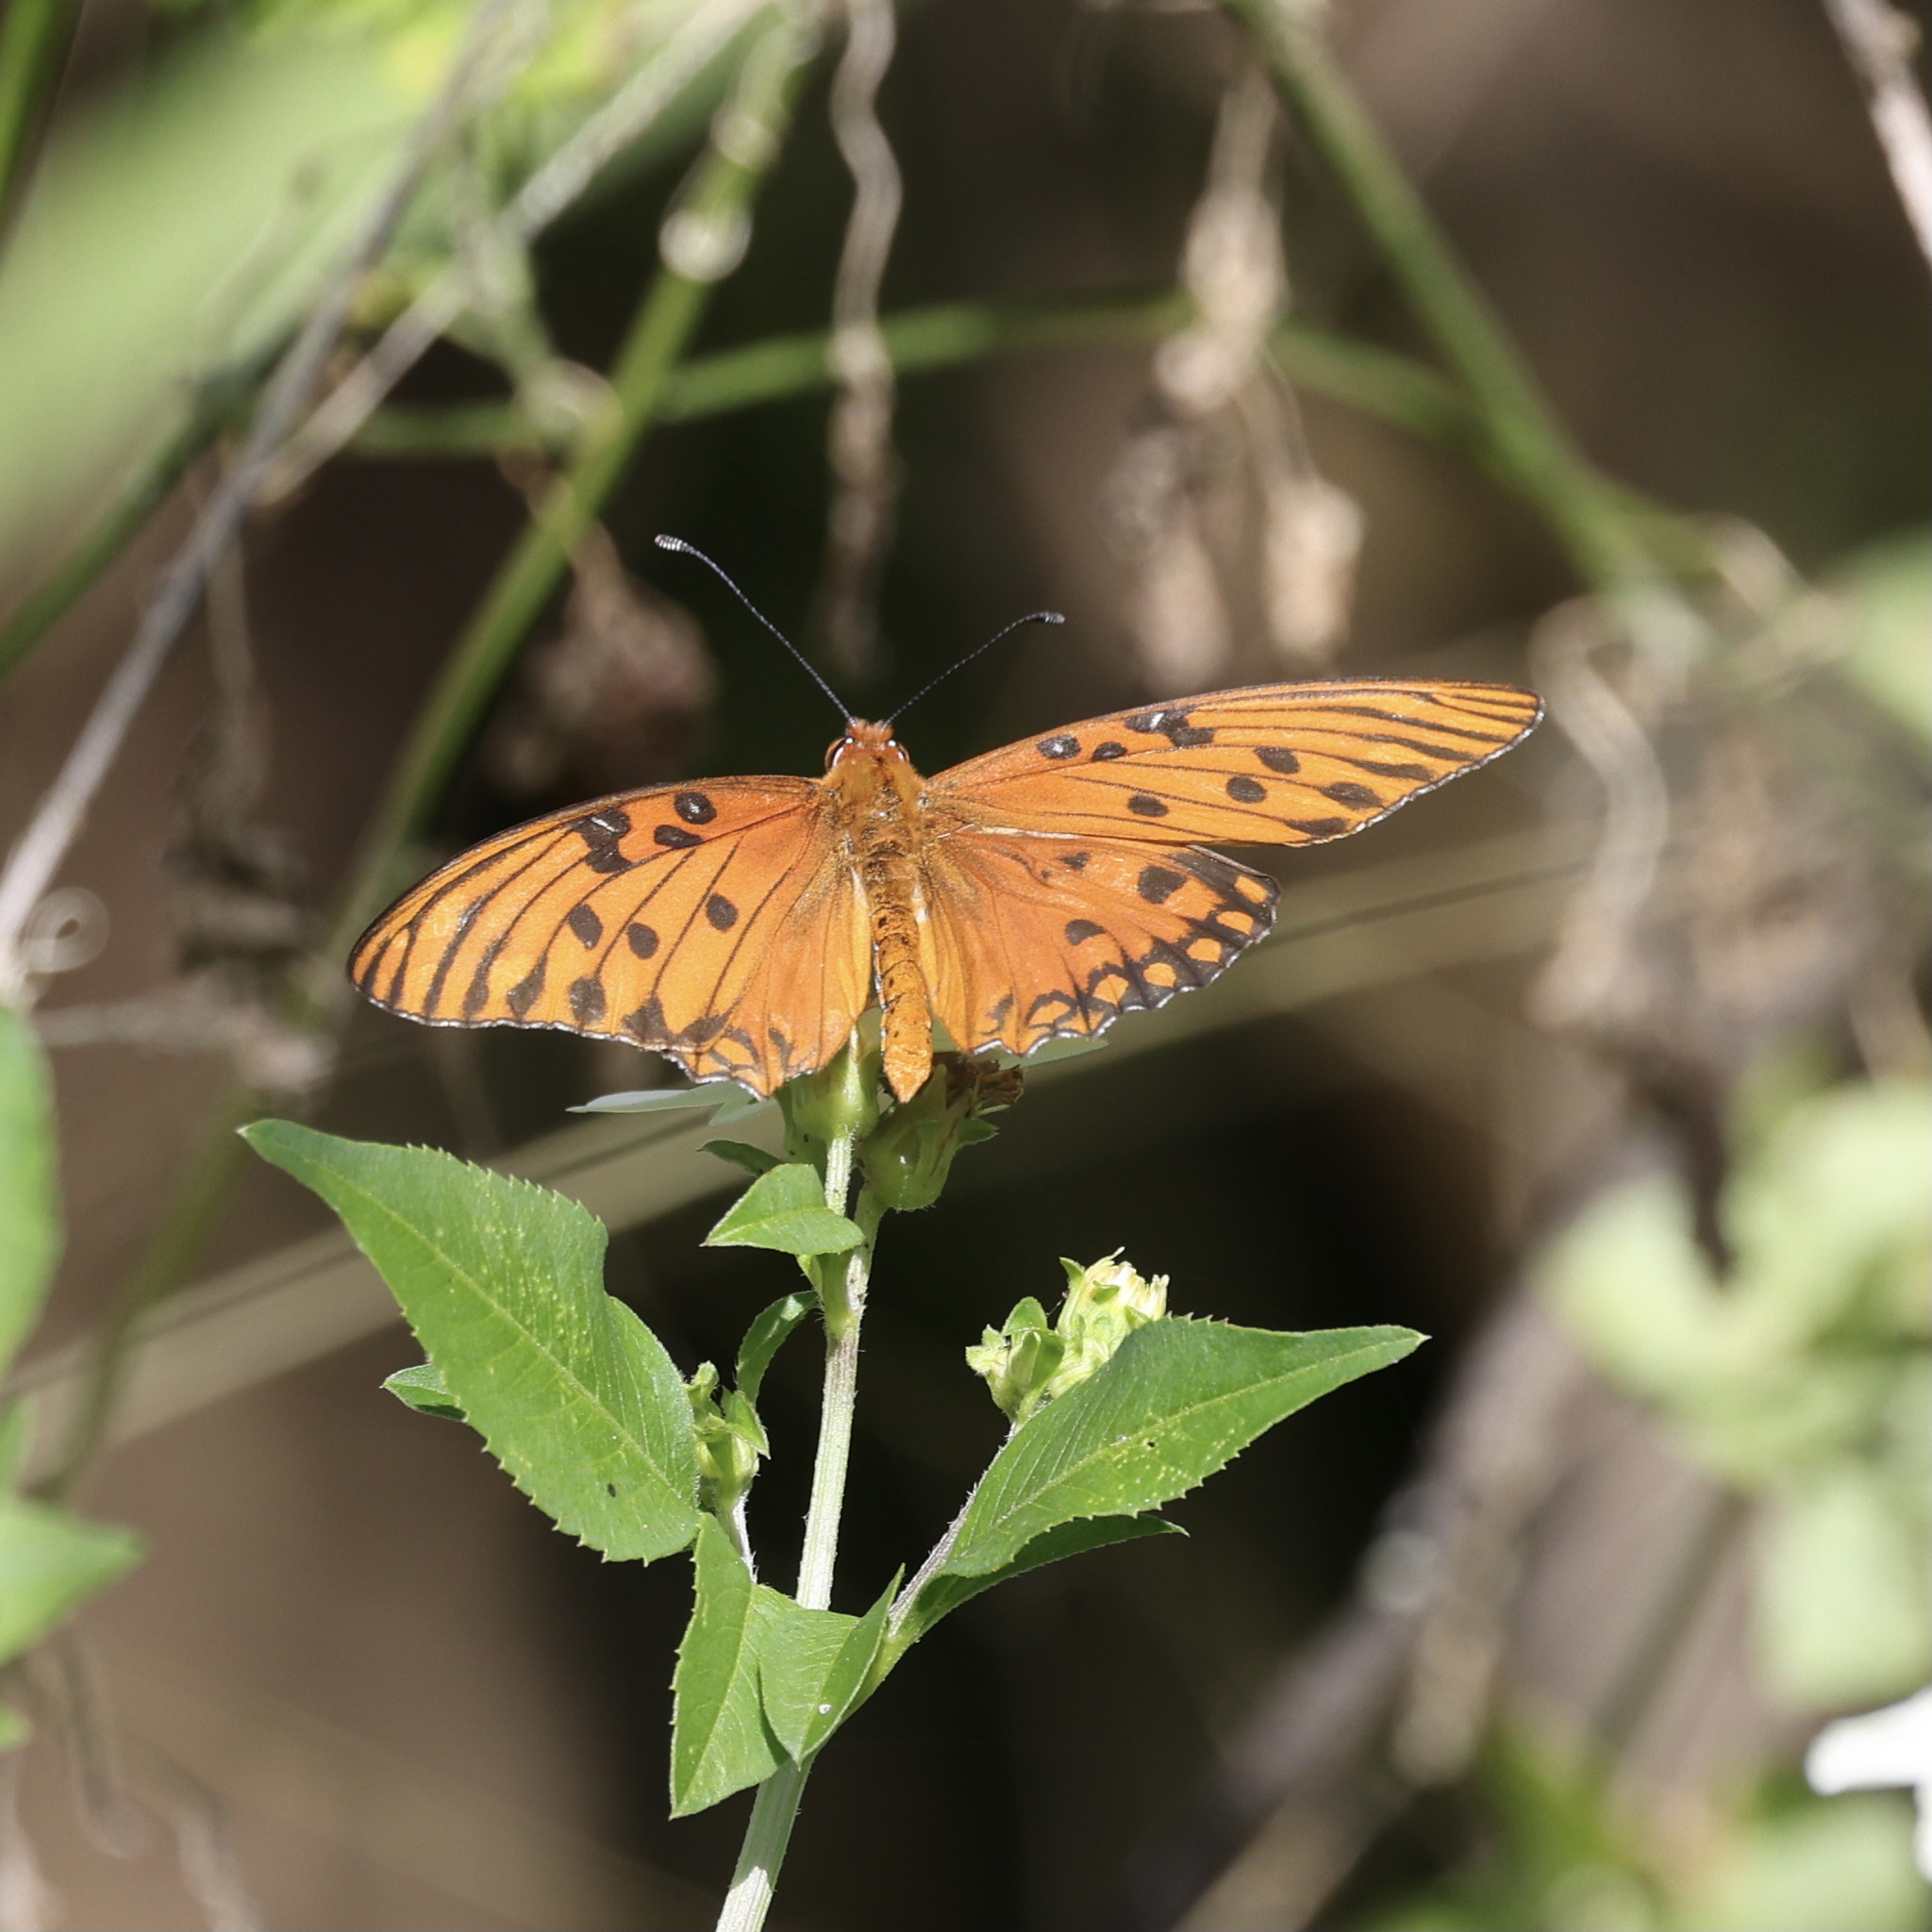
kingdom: Animalia
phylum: Arthropoda
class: Insecta
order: Lepidoptera
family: Nymphalidae
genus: Dione
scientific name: Dione vanillae
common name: Gulf fritillary
